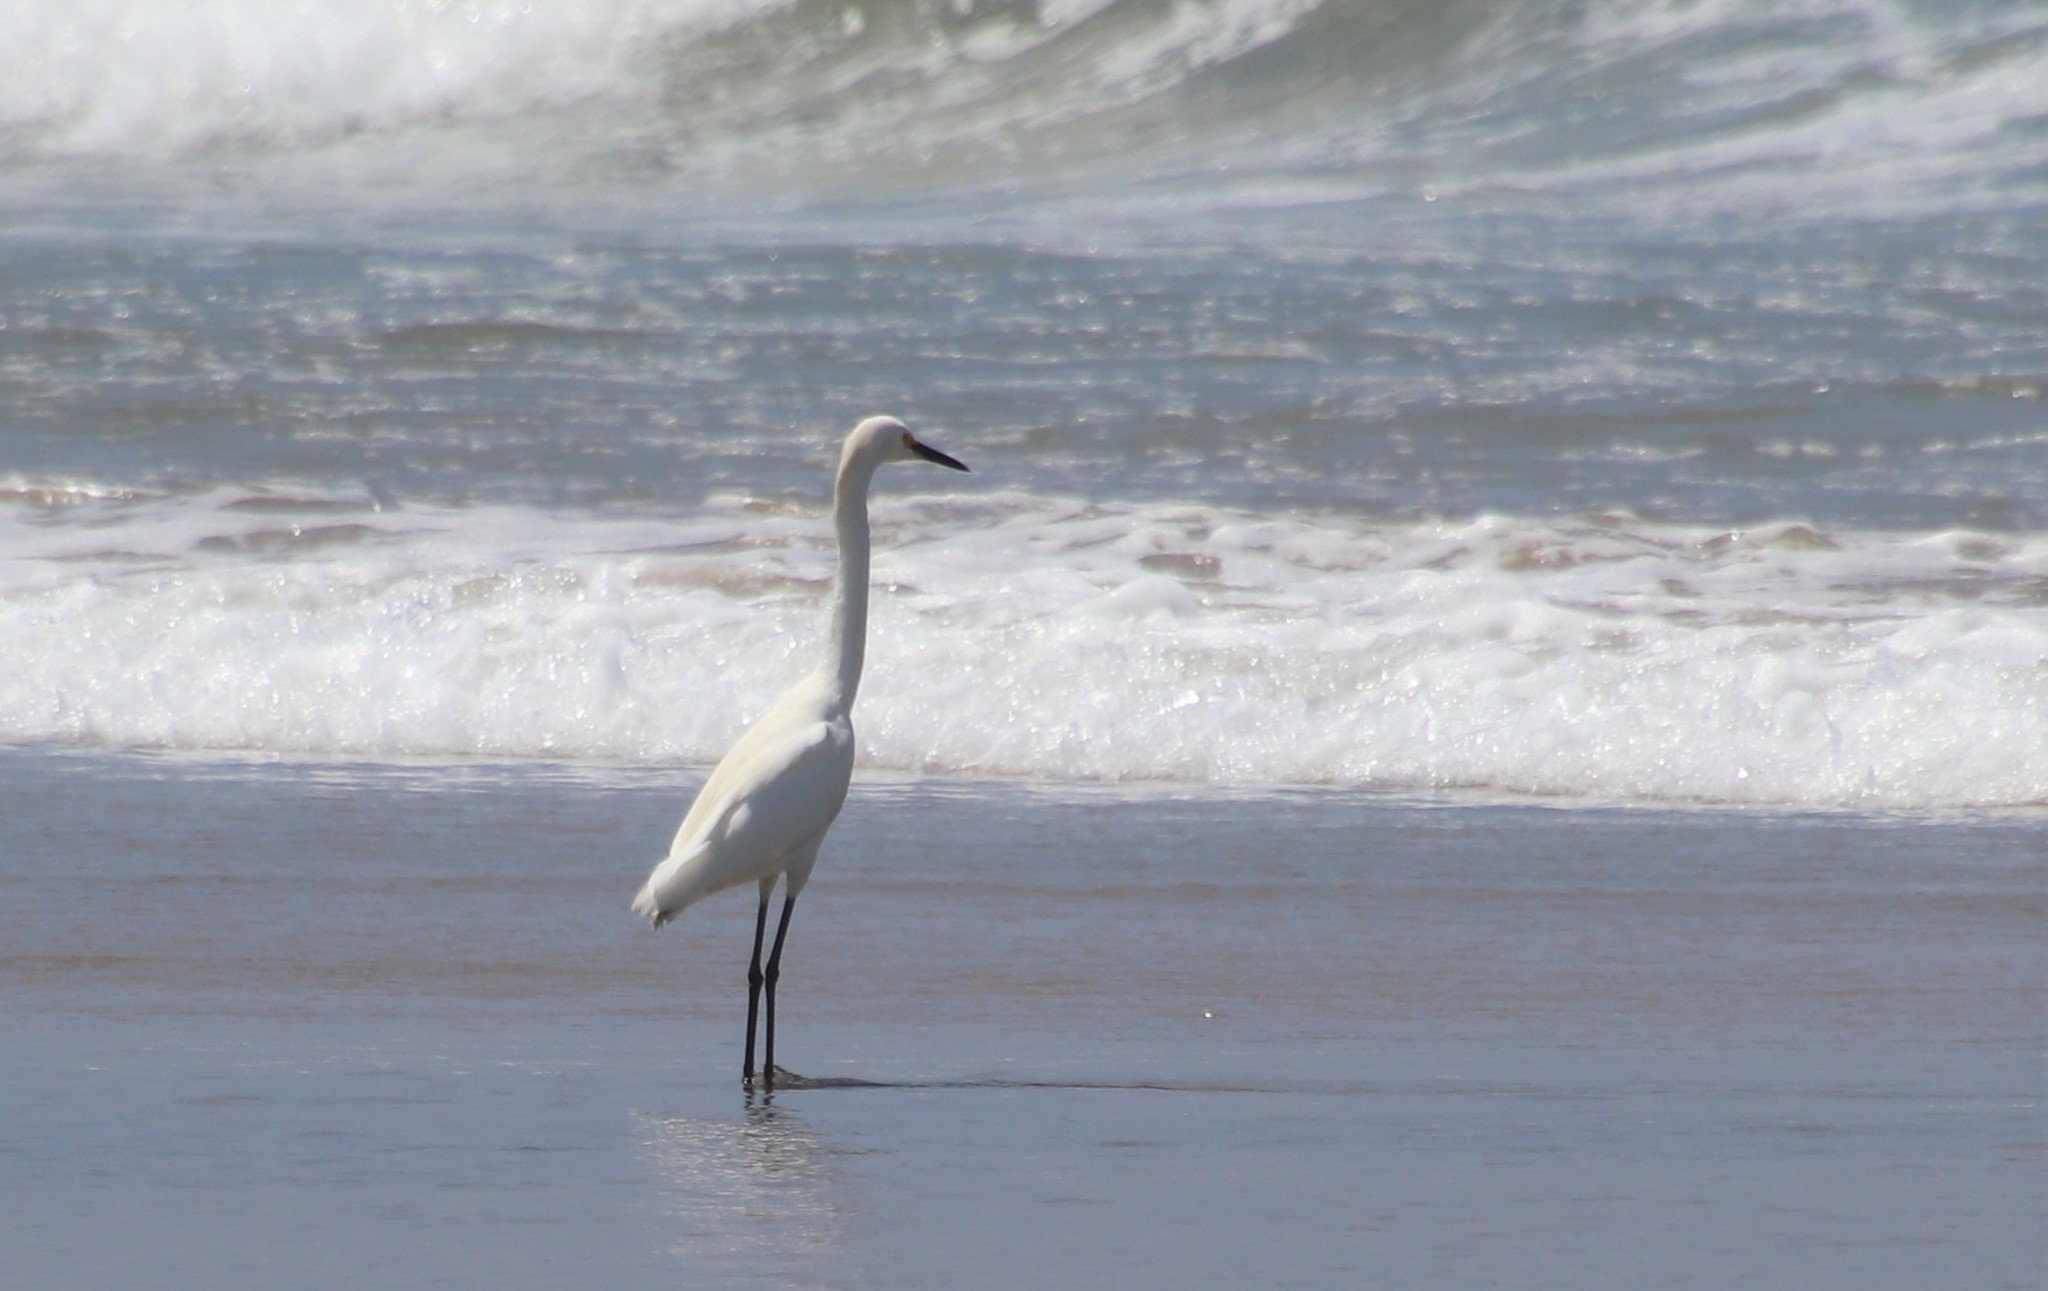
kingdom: Animalia
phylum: Chordata
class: Aves
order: Pelecaniformes
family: Ardeidae
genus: Egretta
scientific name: Egretta thula
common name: Snowy egret
